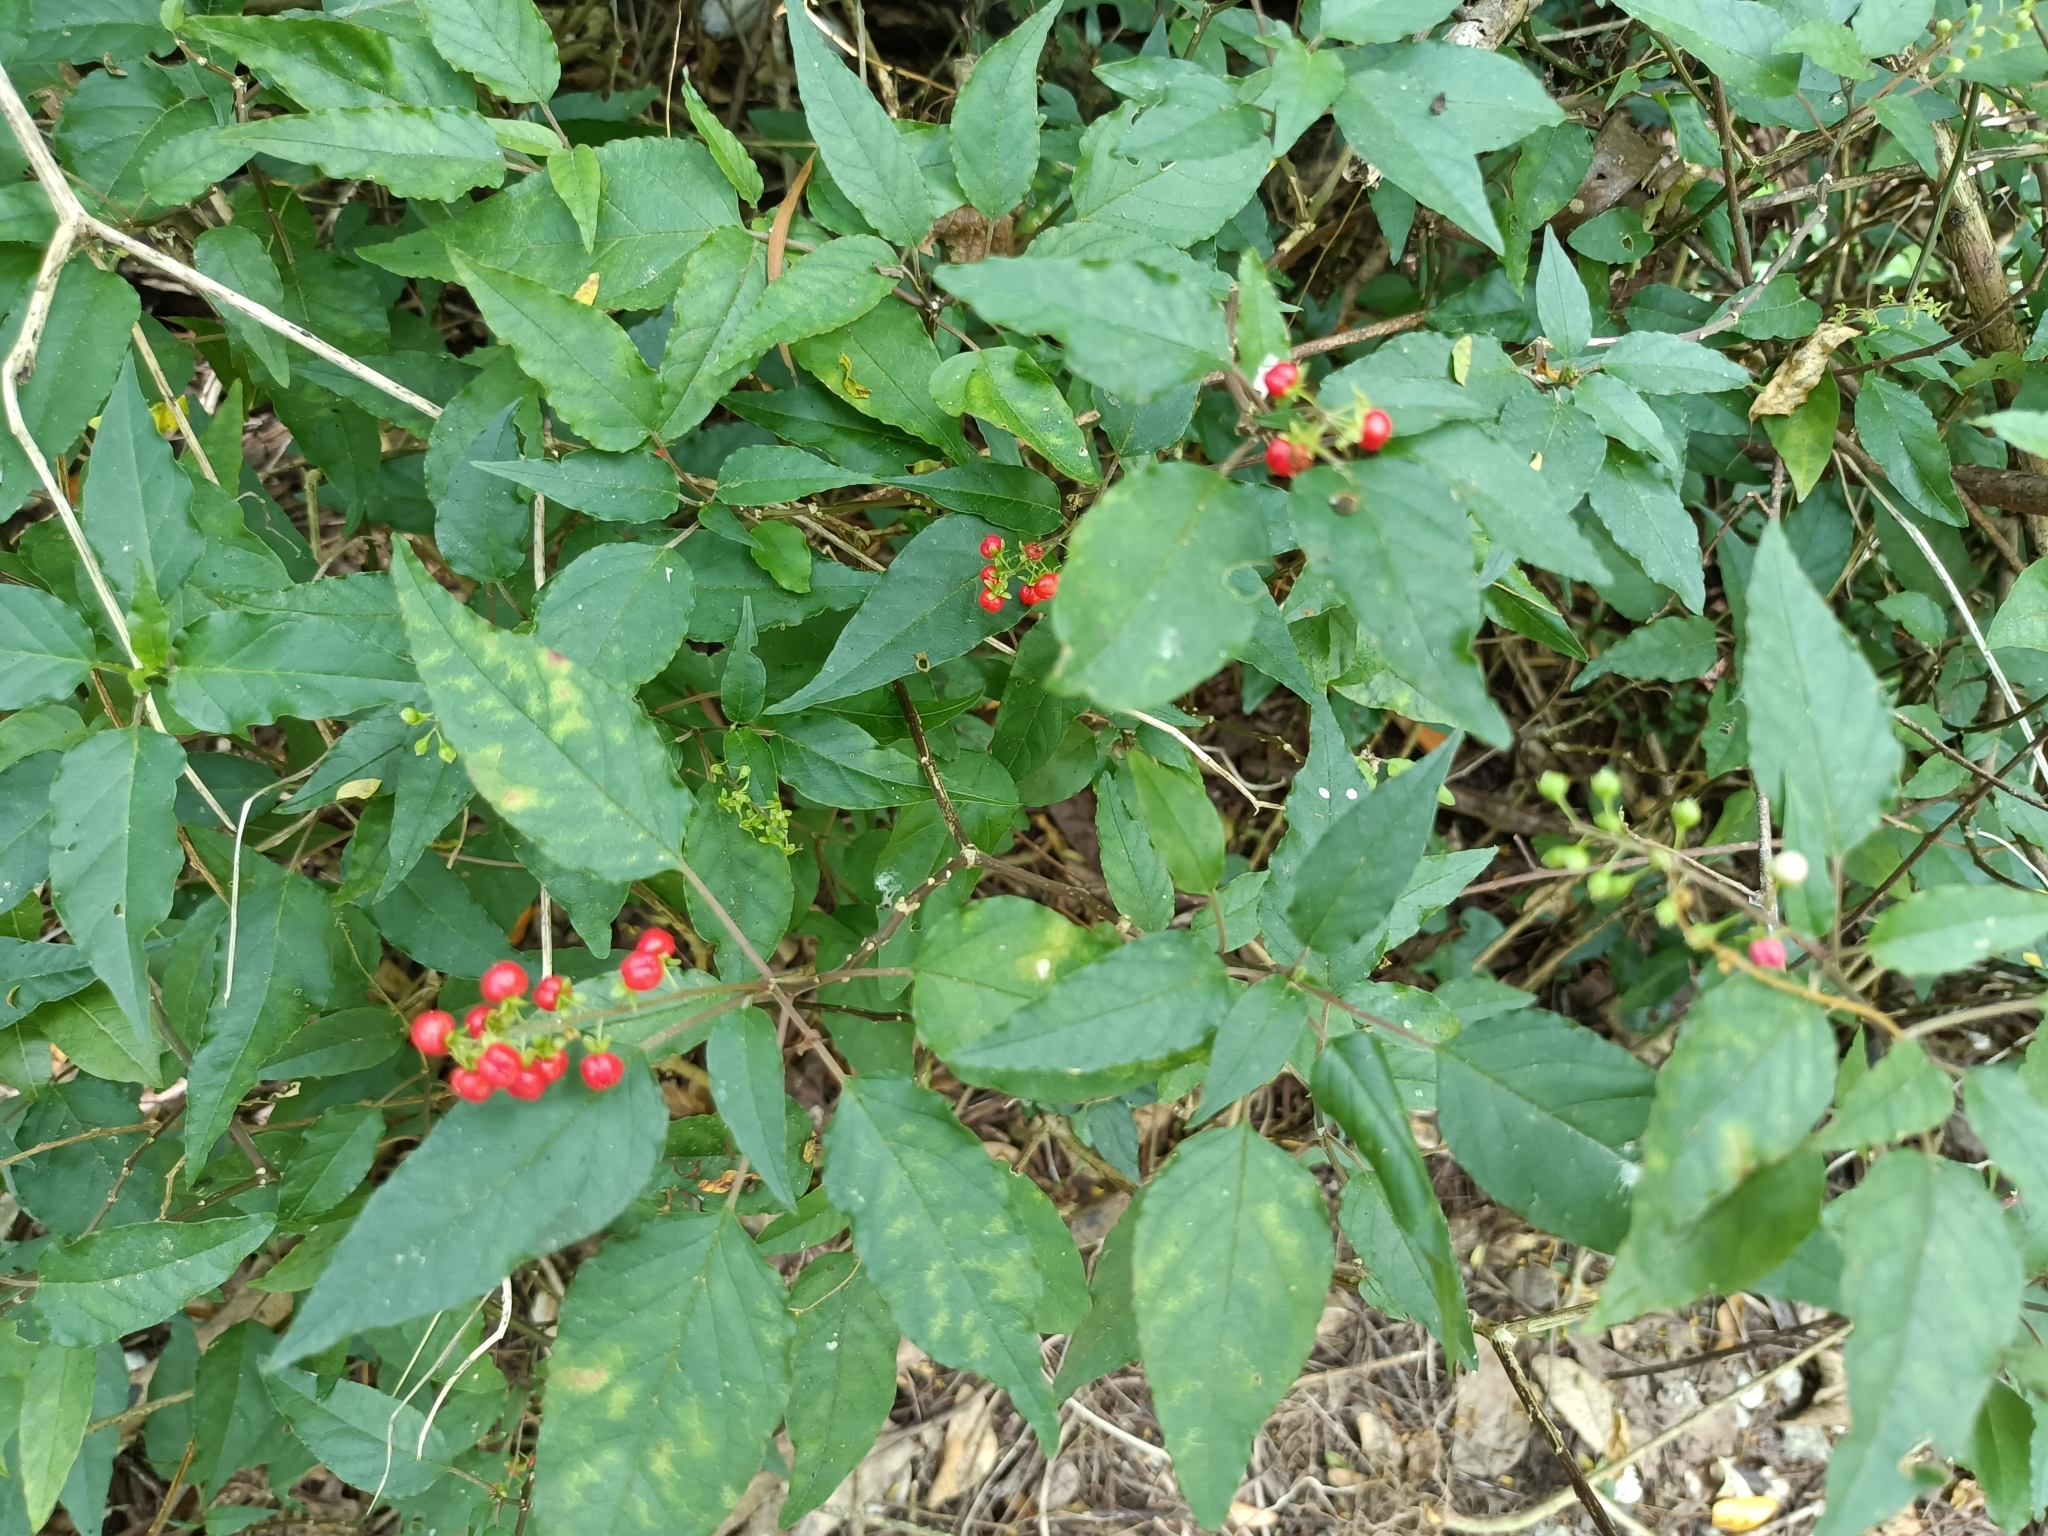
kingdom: Plantae
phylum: Tracheophyta
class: Magnoliopsida
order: Caryophyllales
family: Phytolaccaceae
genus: Rivina
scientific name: Rivina humilis
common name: Rougeplant
